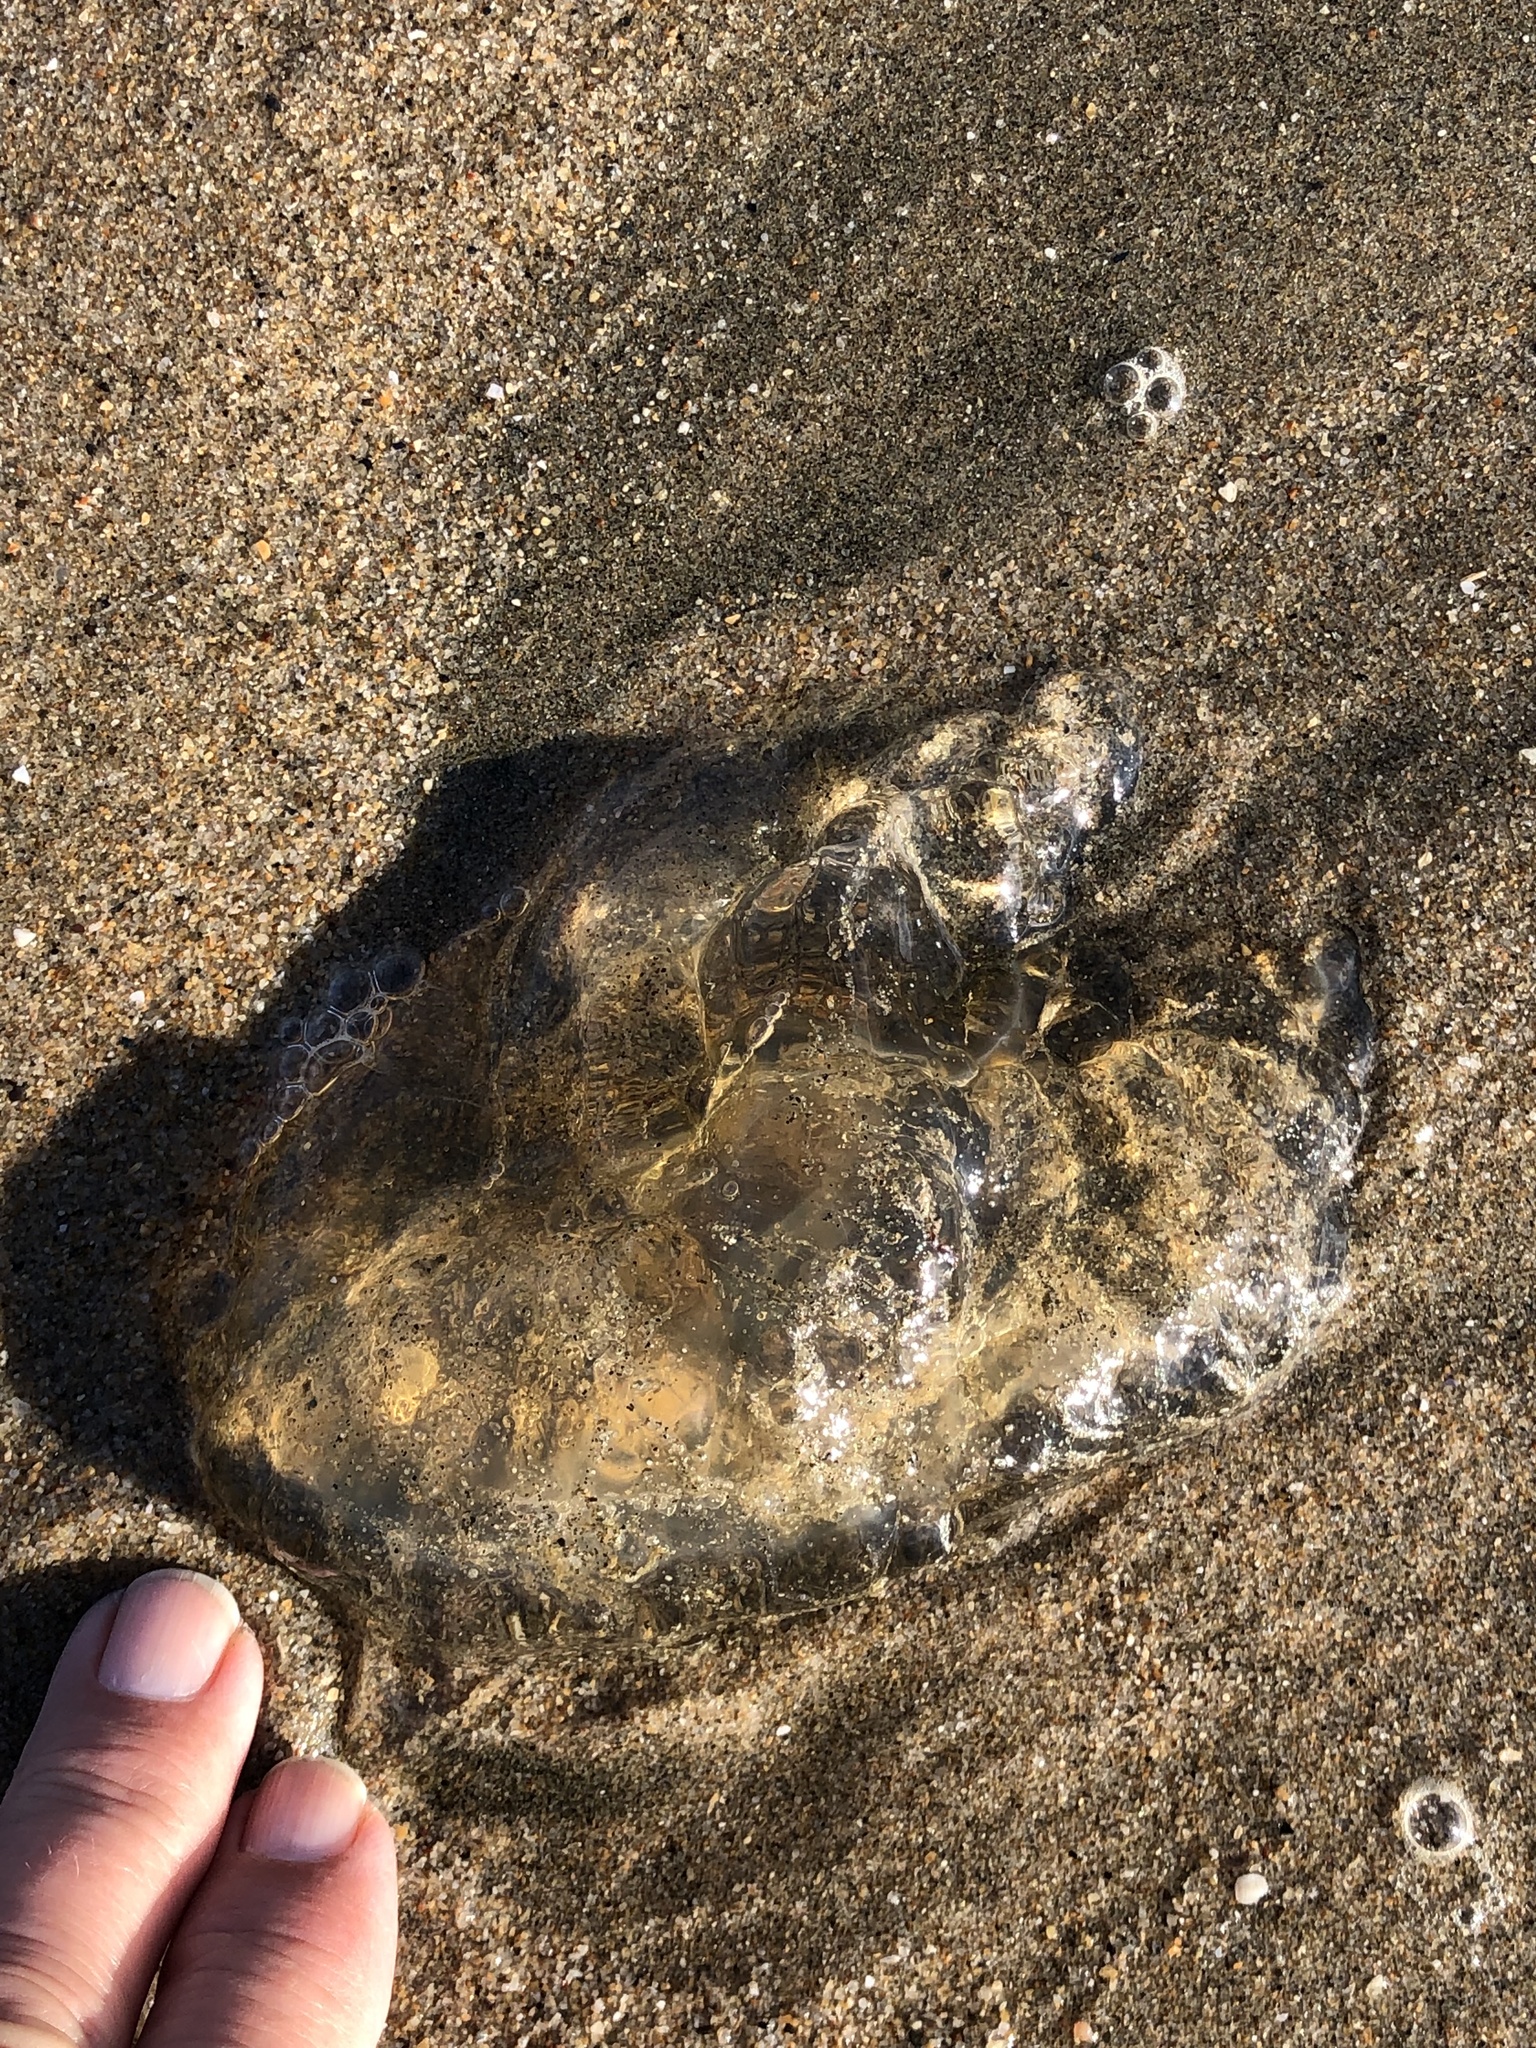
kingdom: Animalia
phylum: Cnidaria
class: Scyphozoa
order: Semaeostomeae
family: Pelagiidae
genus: Chrysaora
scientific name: Chrysaora fuscescens
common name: Sea nettle
